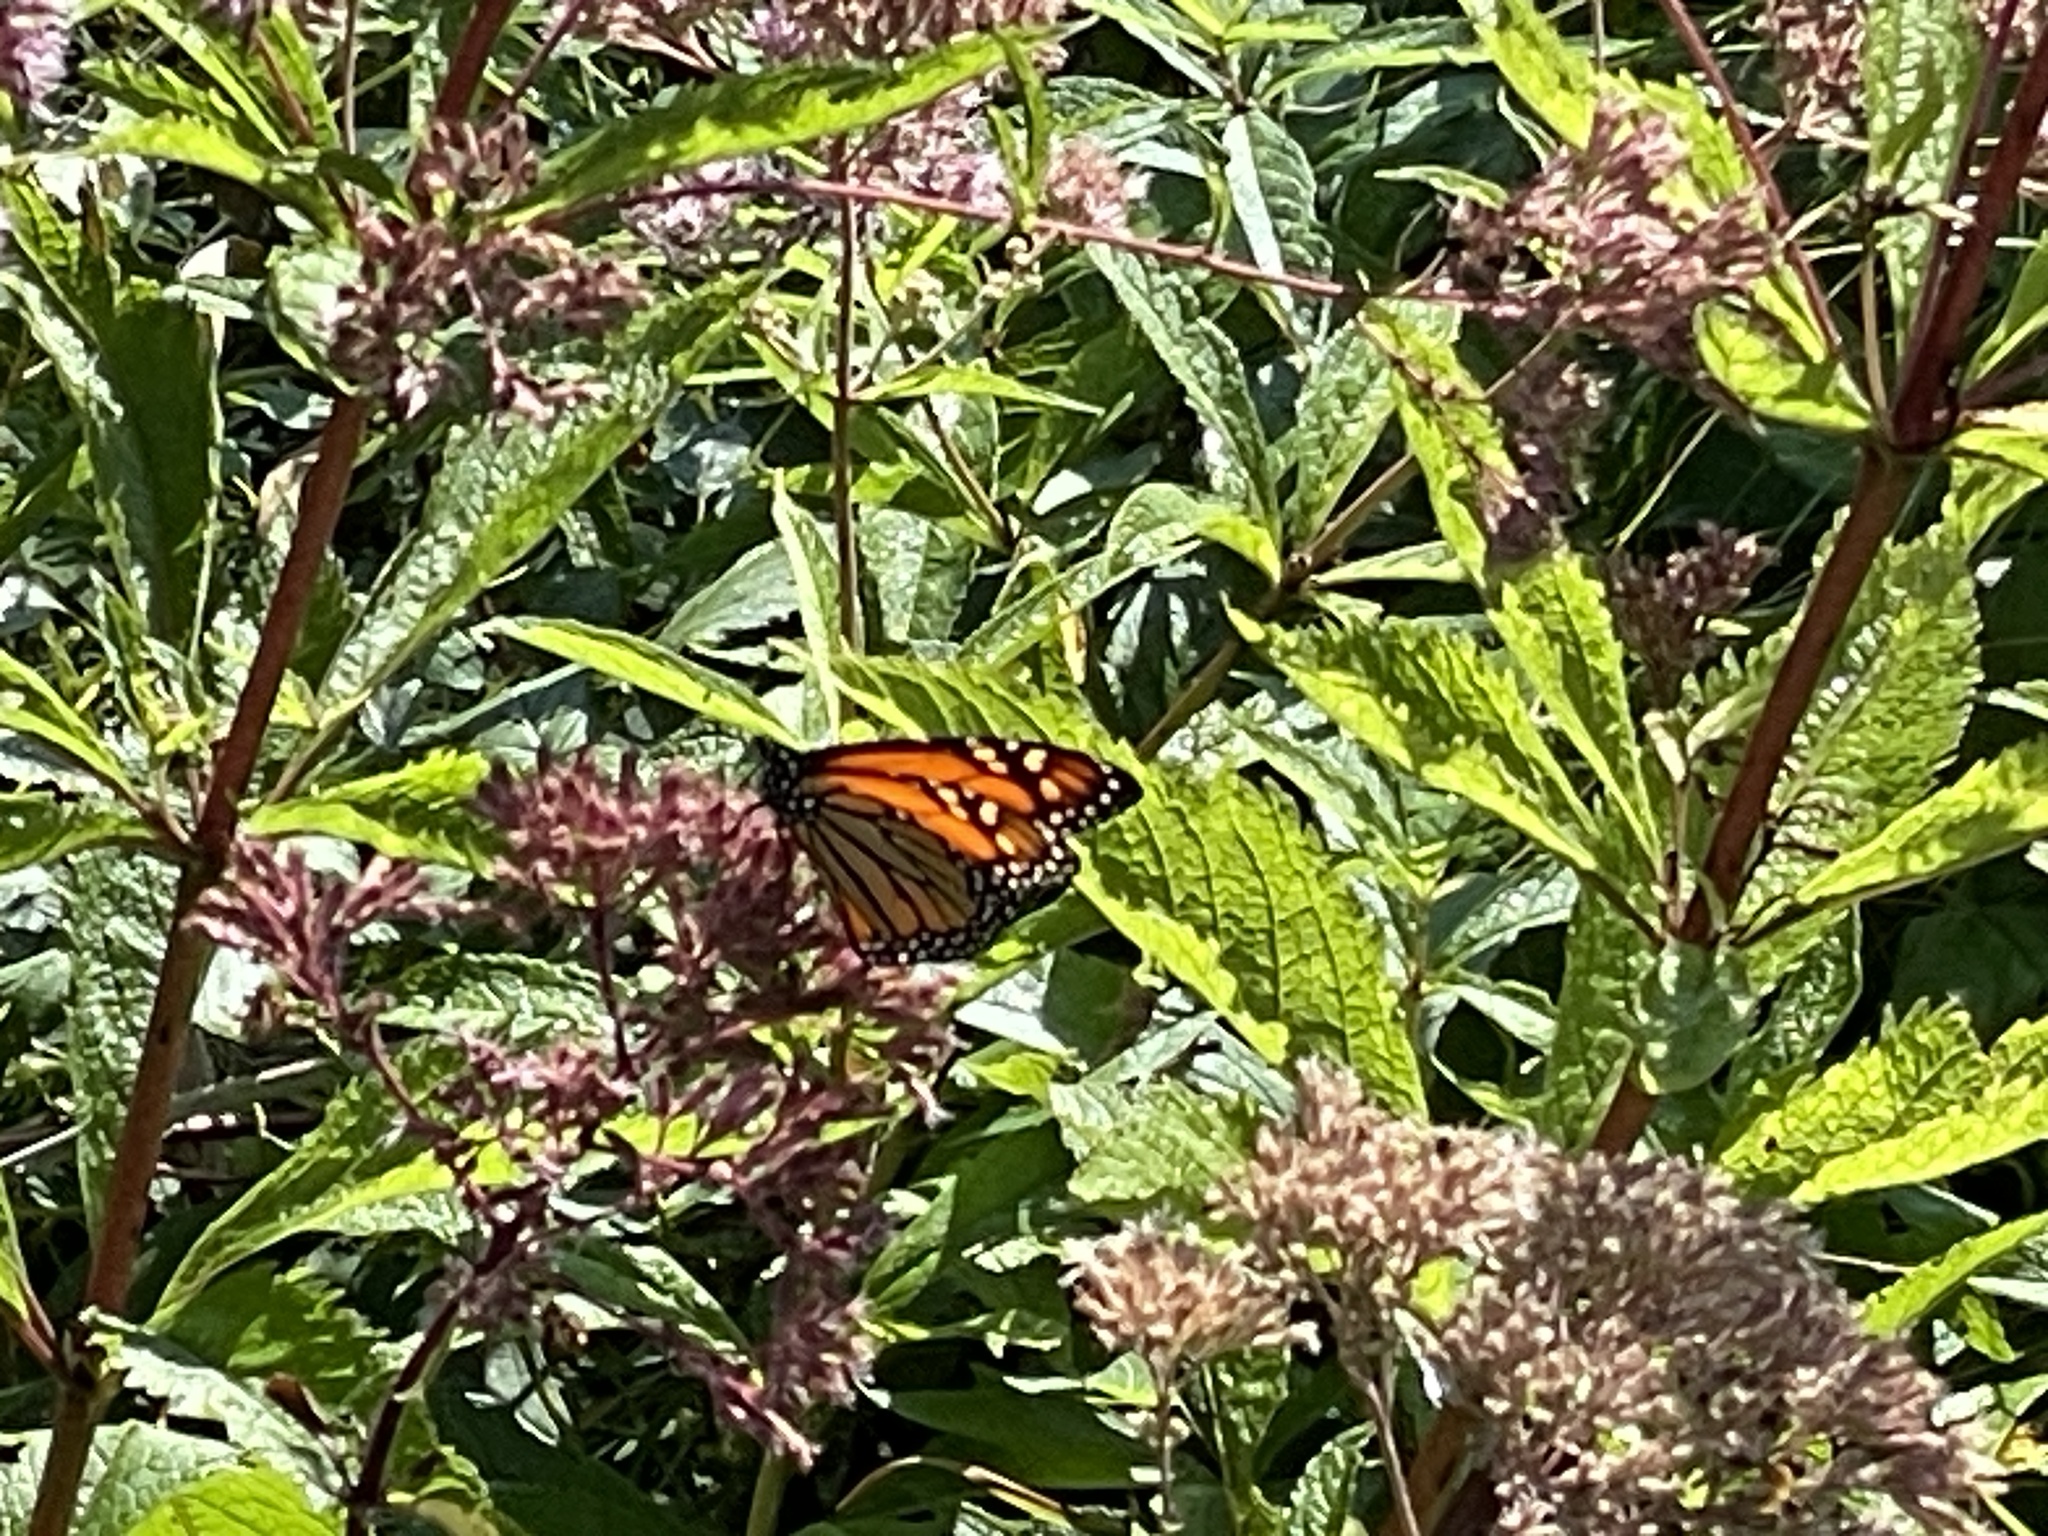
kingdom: Animalia
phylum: Arthropoda
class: Insecta
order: Lepidoptera
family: Nymphalidae
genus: Danaus
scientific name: Danaus plexippus
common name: Monarch
